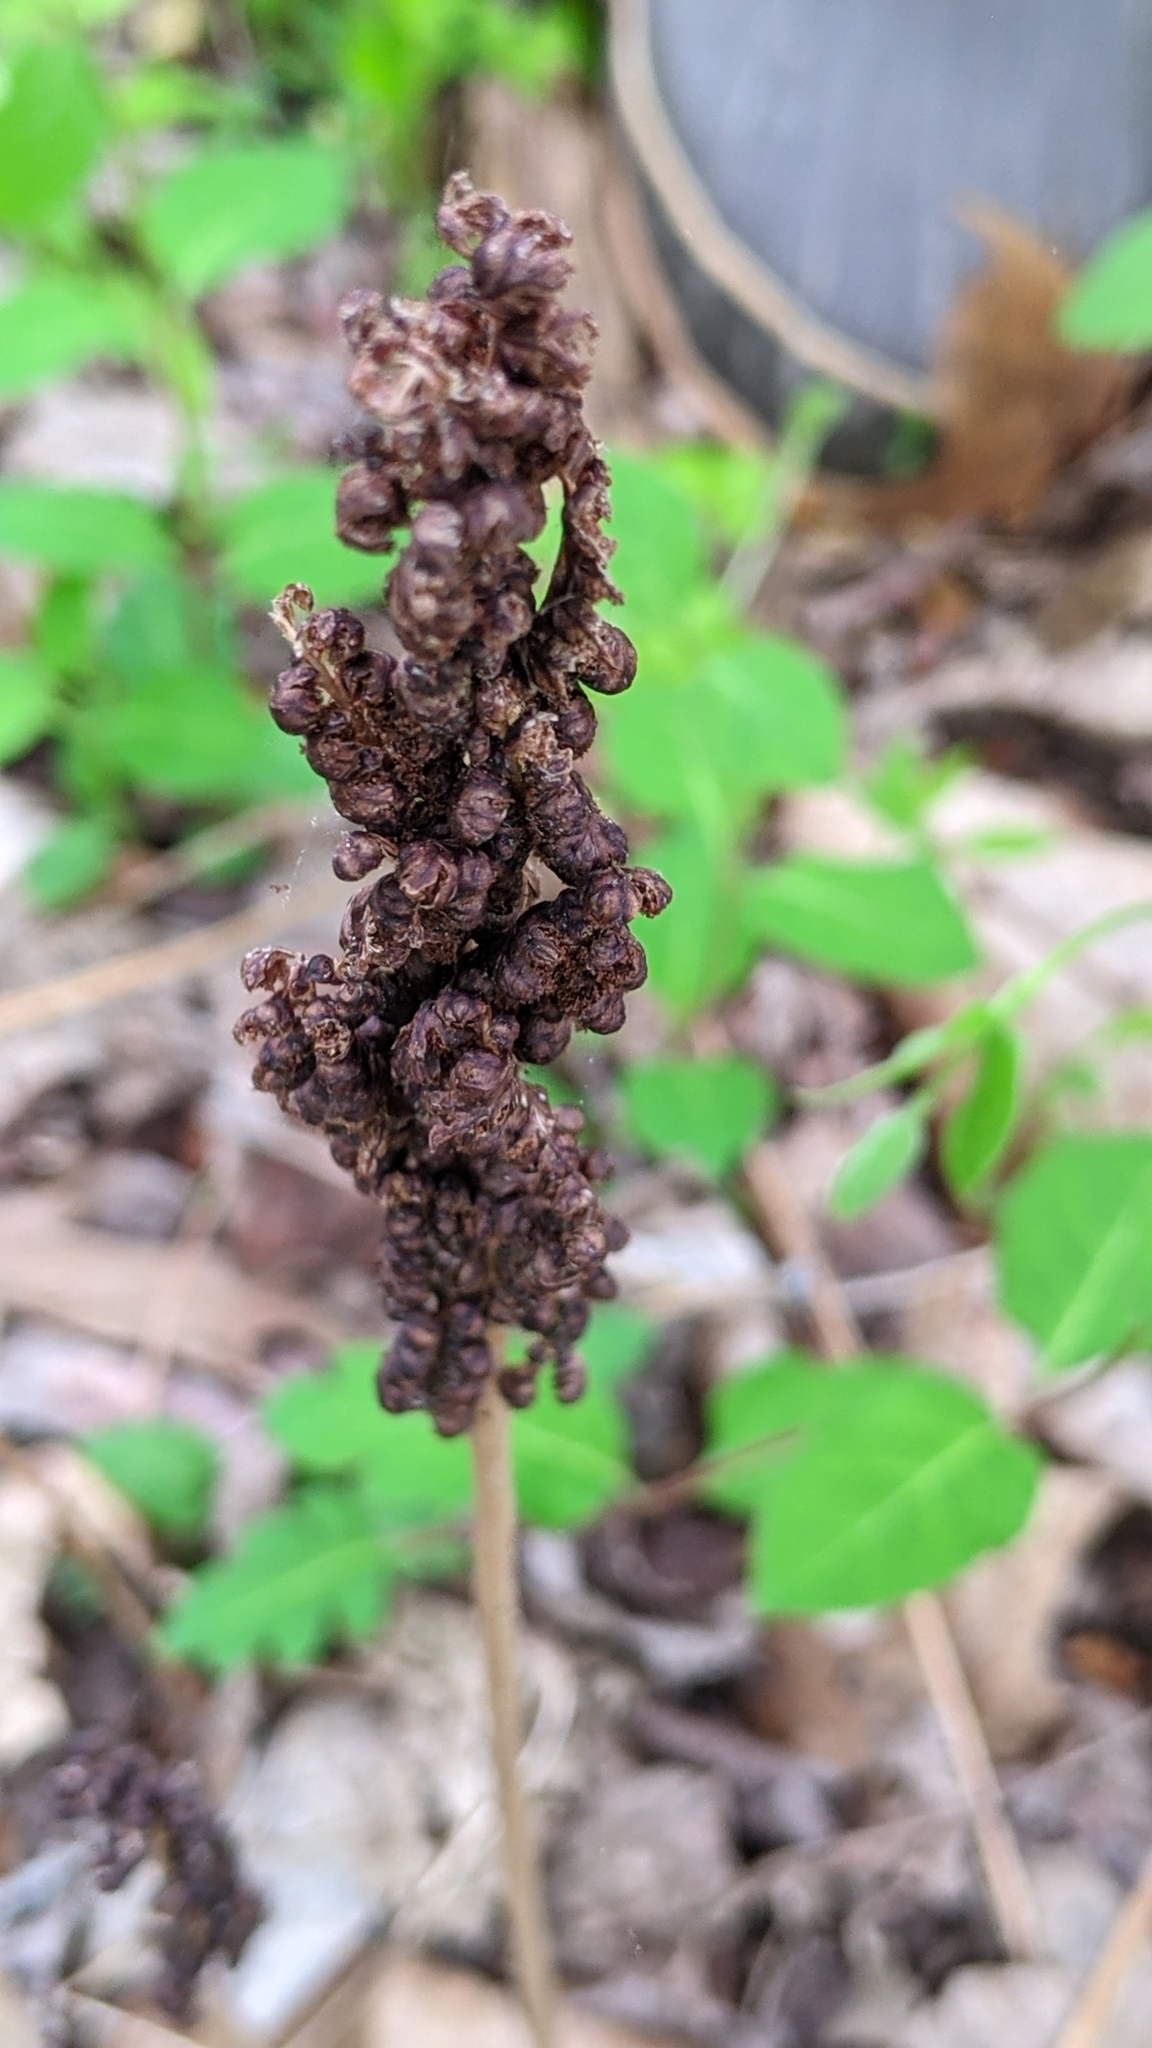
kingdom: Plantae
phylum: Tracheophyta
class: Polypodiopsida
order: Polypodiales
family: Onocleaceae
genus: Onoclea
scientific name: Onoclea sensibilis
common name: Sensitive fern
